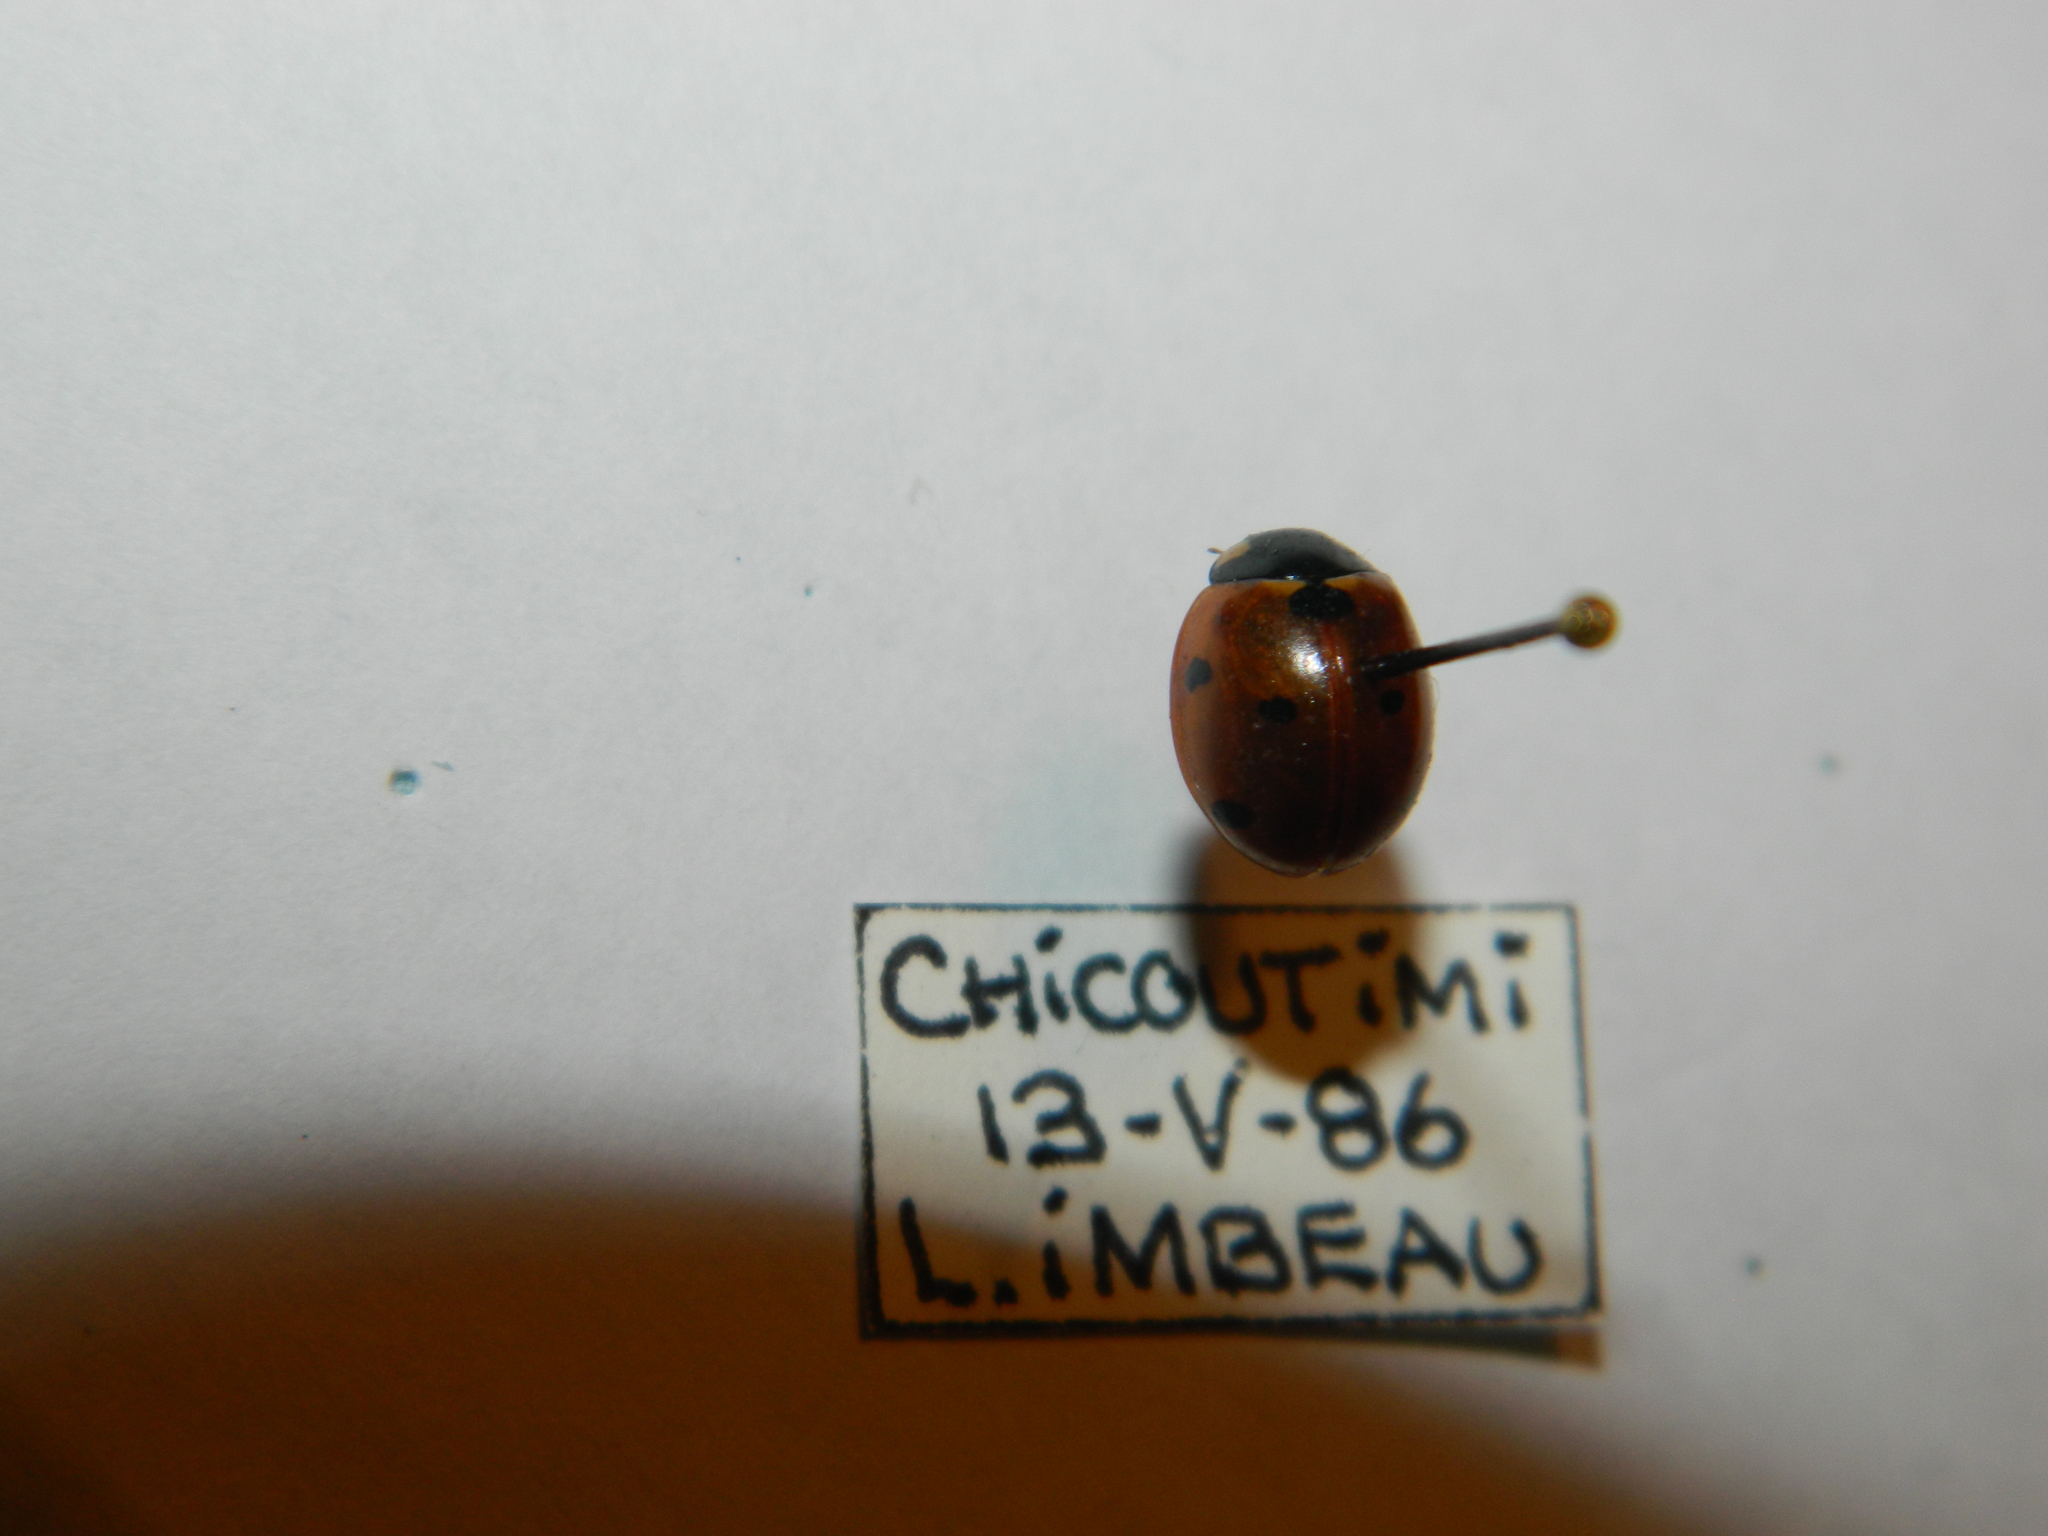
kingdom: Animalia
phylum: Arthropoda
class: Insecta
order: Coleoptera
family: Coccinellidae
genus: Coccinella
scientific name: Coccinella septempunctata
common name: Sevenspotted lady beetle
